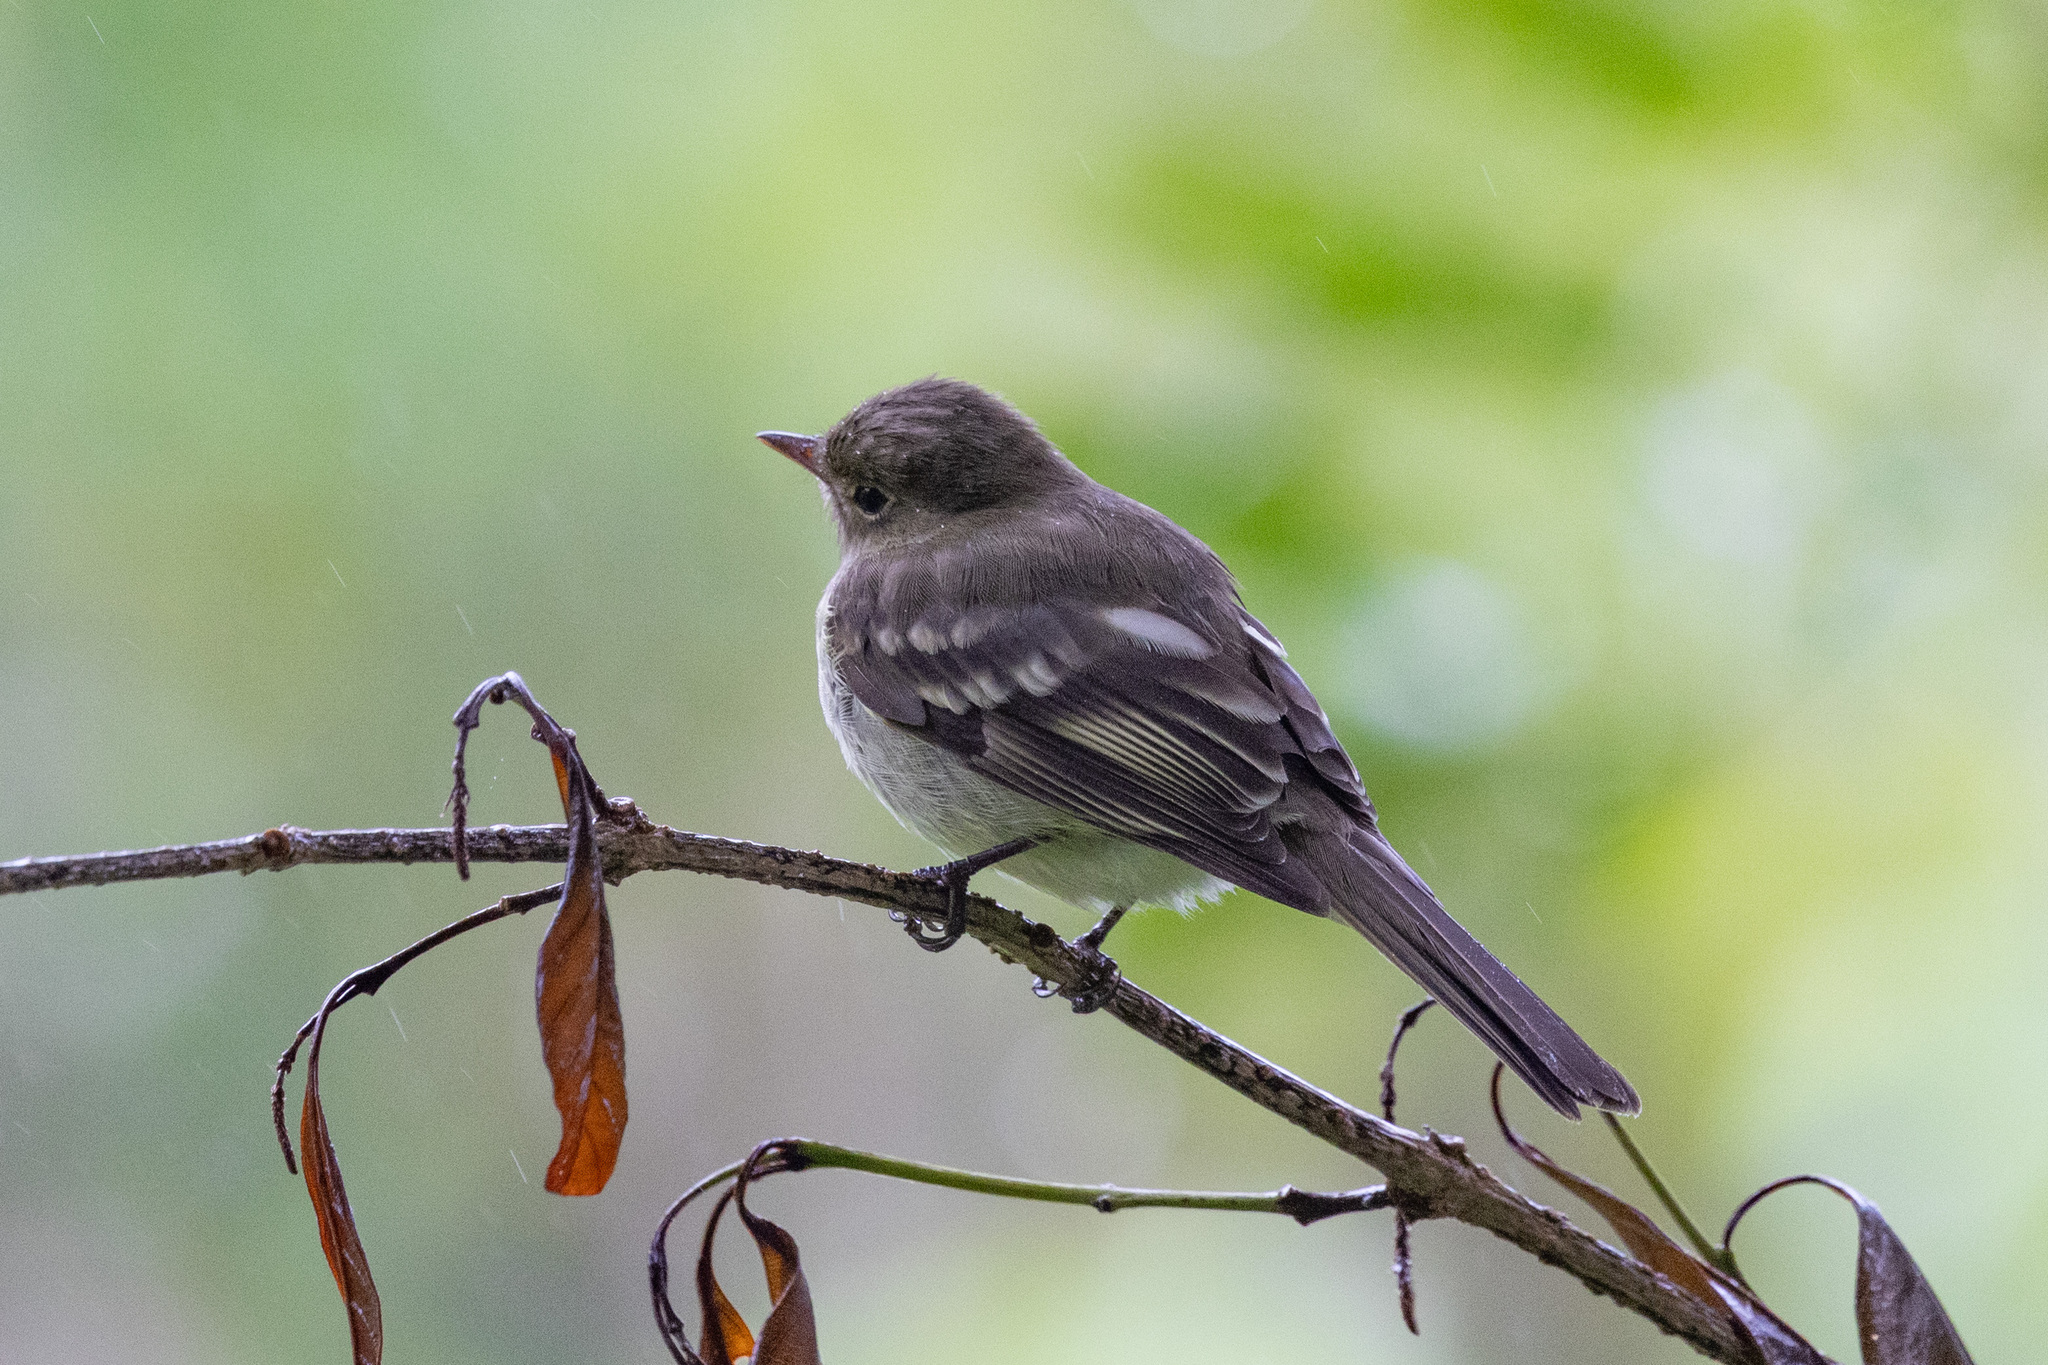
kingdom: Animalia
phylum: Chordata
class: Aves
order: Passeriformes
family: Tyrannidae
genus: Elaenia
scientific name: Elaenia frantzii
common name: Mountain elaenia
